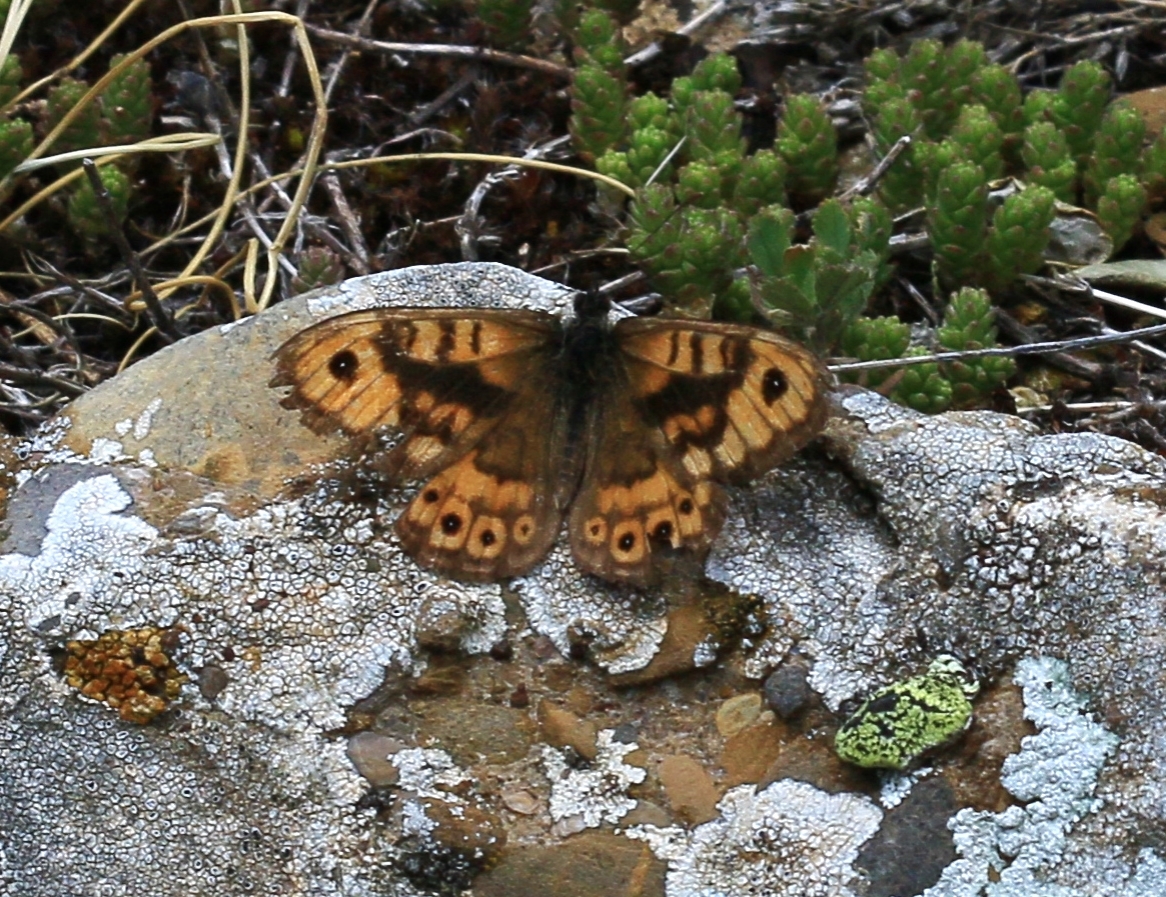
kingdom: Animalia
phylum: Arthropoda
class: Insecta
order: Lepidoptera
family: Nymphalidae
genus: Pararge
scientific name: Pararge Lasiommata megera
